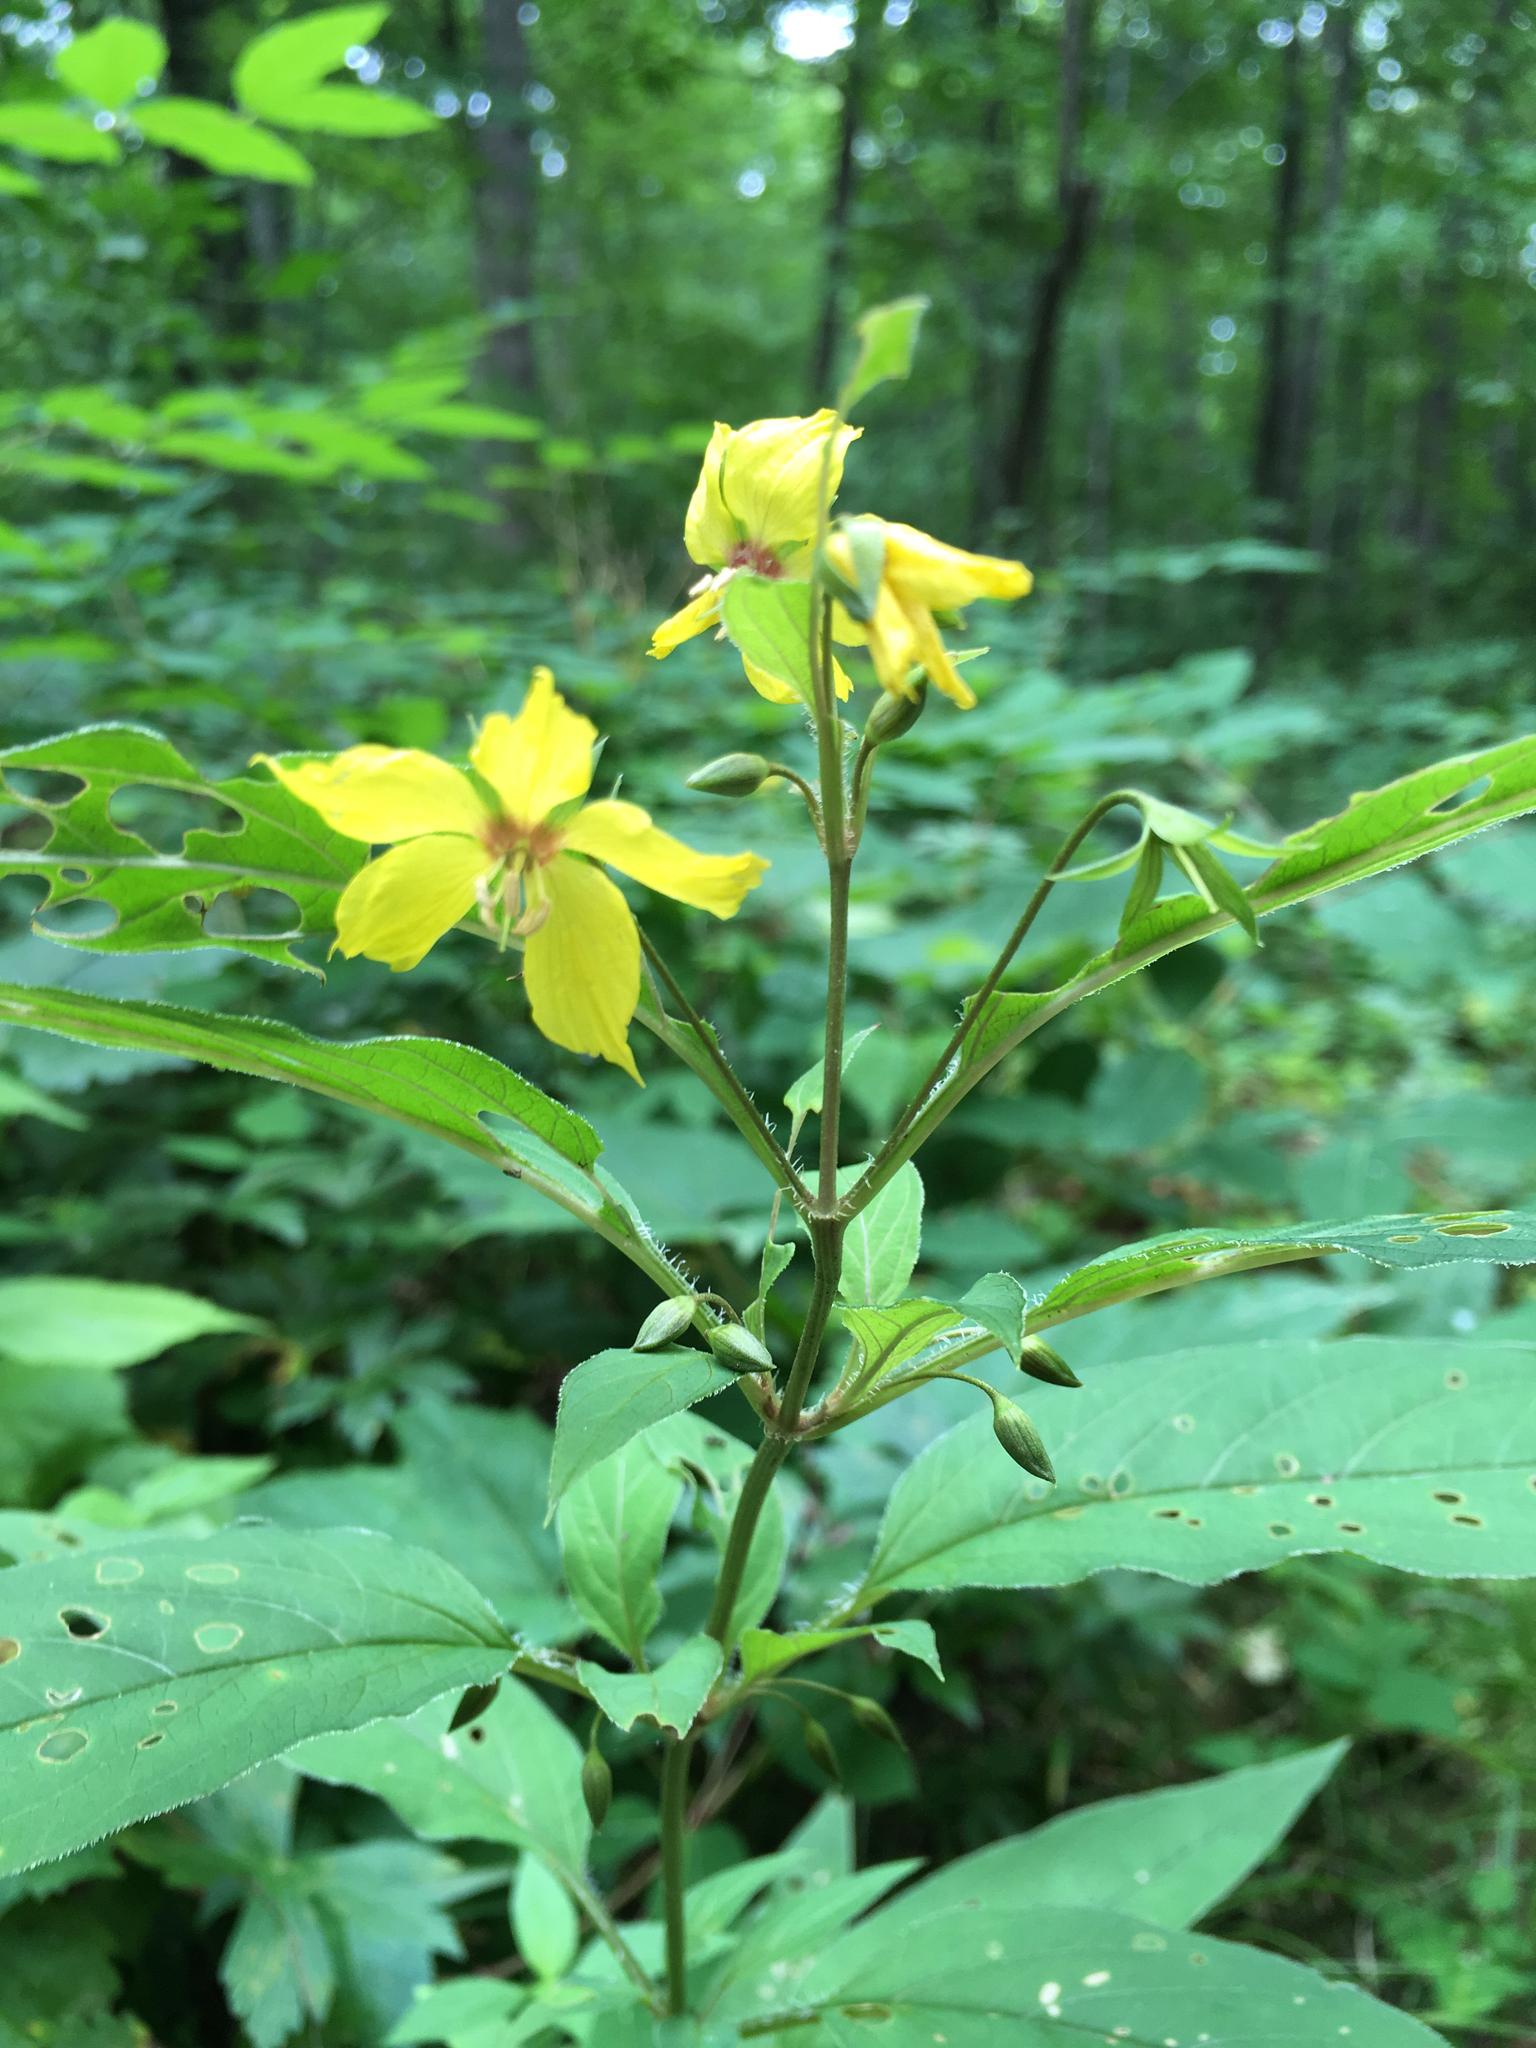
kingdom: Plantae
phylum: Tracheophyta
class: Magnoliopsida
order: Ericales
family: Primulaceae
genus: Lysimachia
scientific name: Lysimachia ciliata
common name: Fringed loosestrife
